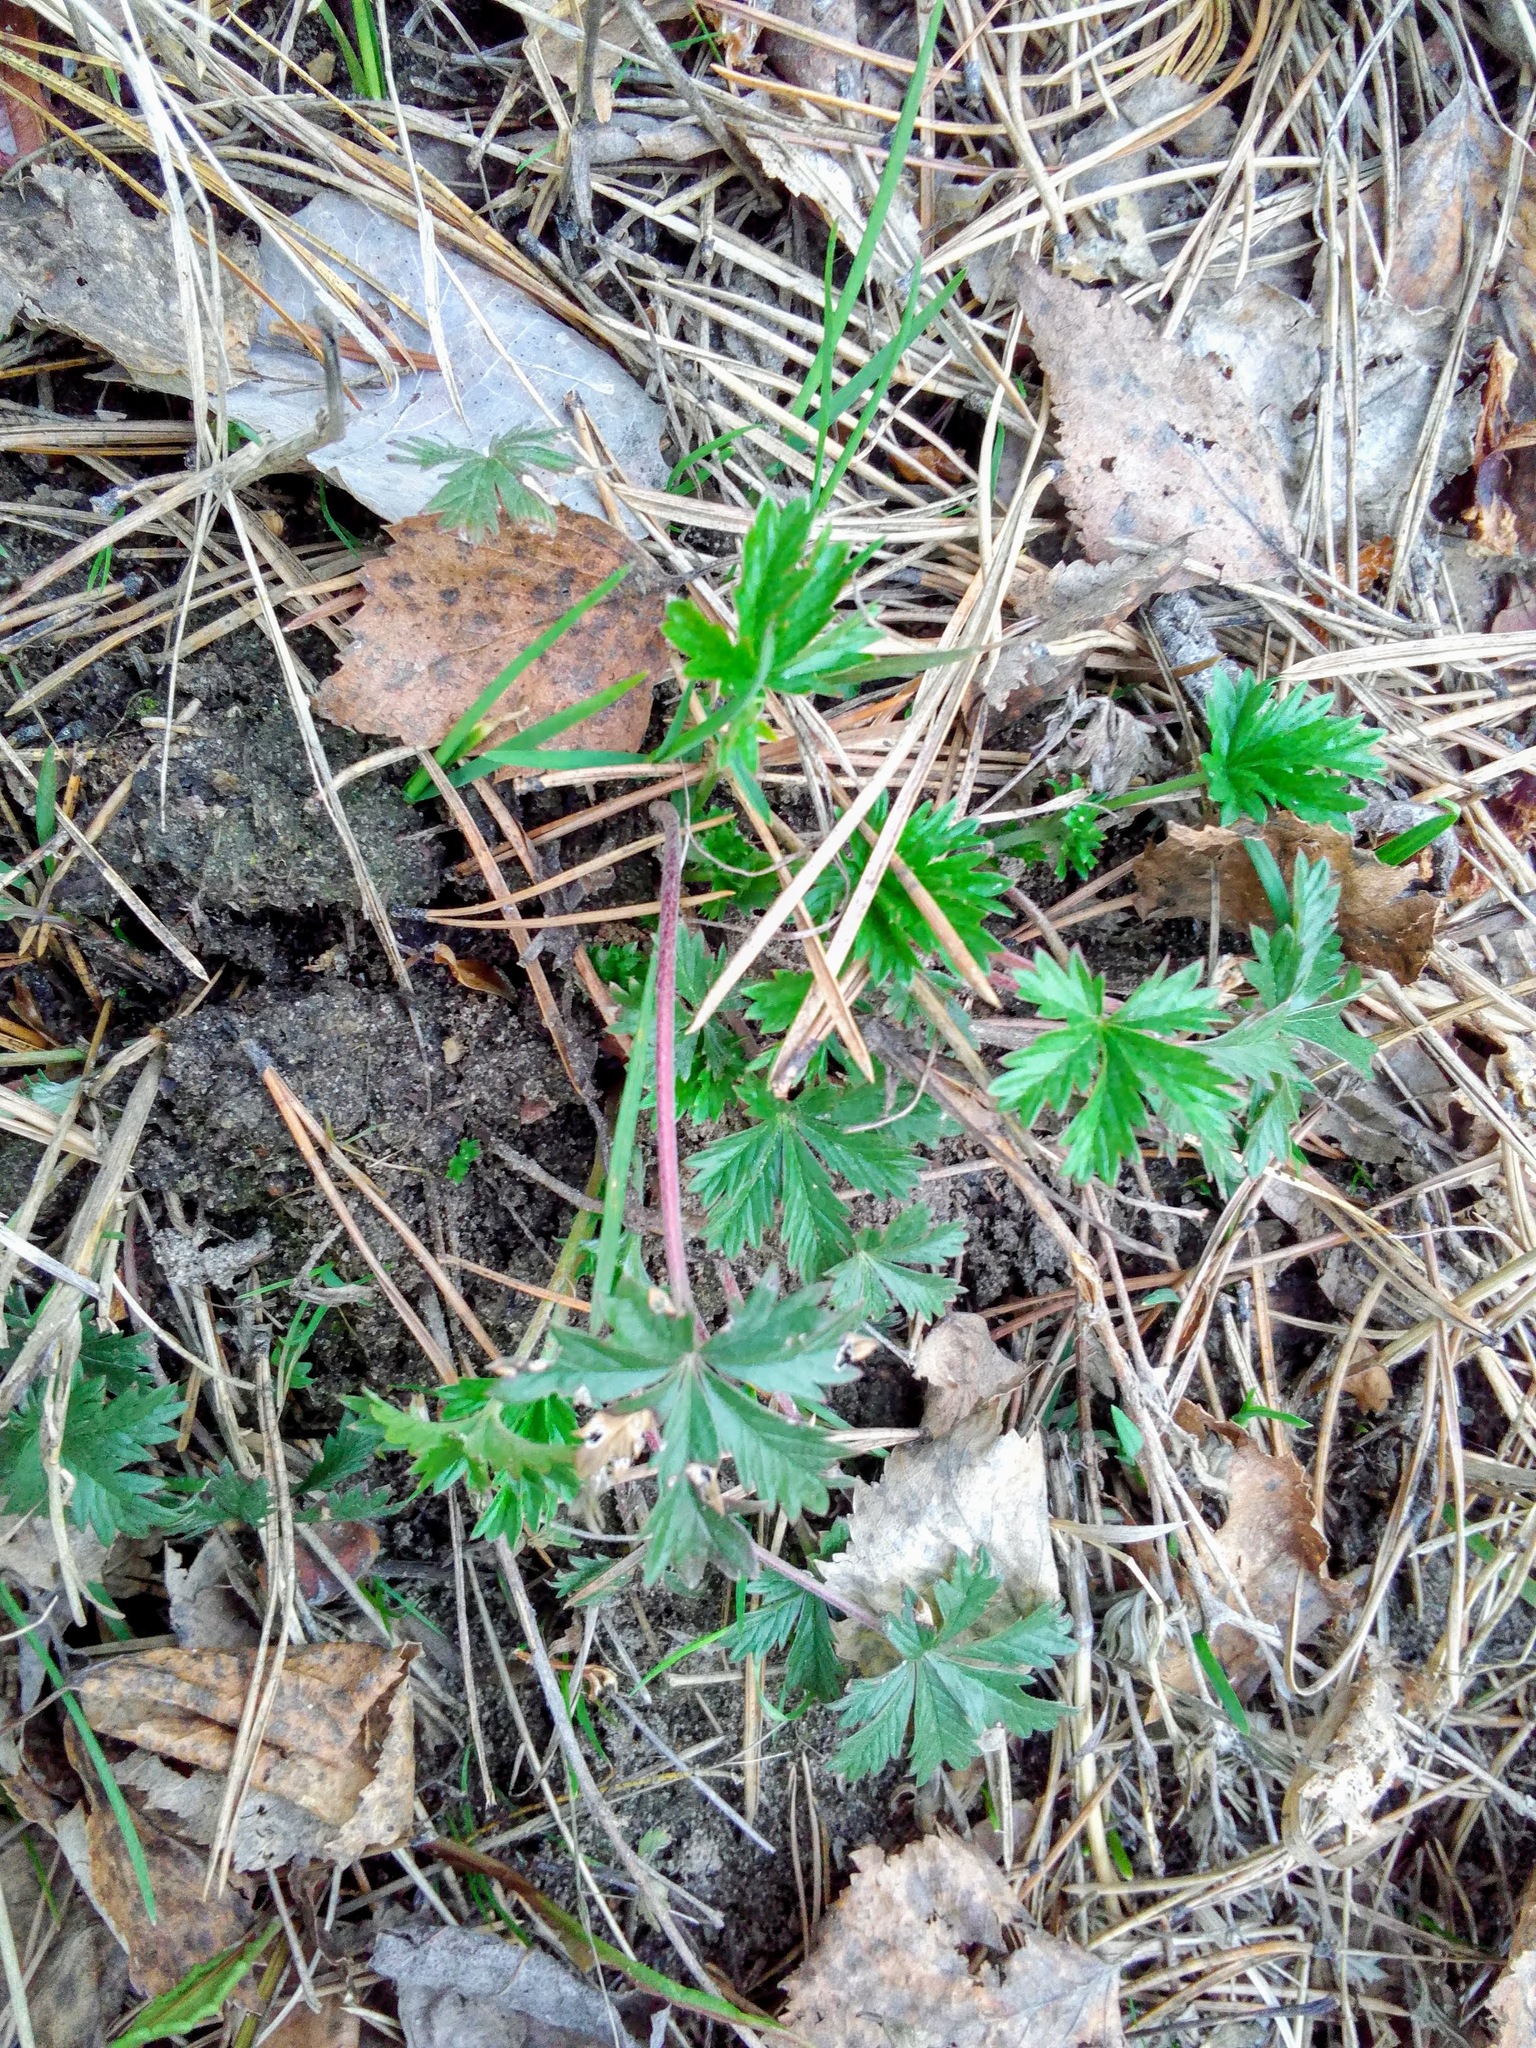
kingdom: Plantae
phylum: Tracheophyta
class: Magnoliopsida
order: Rosales
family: Rosaceae
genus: Potentilla
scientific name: Potentilla argentea
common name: Hoary cinquefoil
